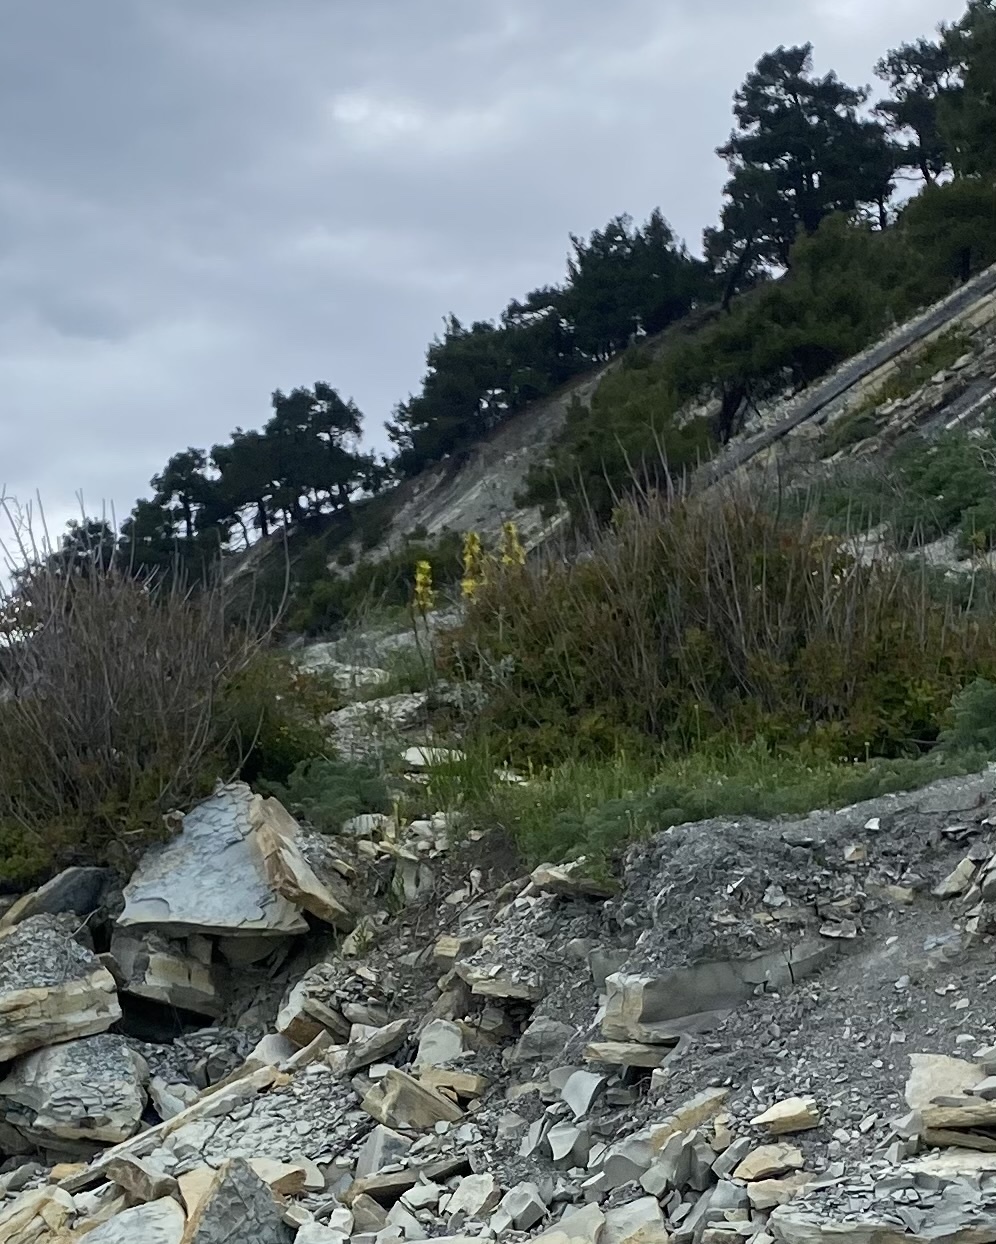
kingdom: Plantae
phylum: Tracheophyta
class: Liliopsida
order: Asparagales
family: Asphodelaceae
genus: Asphodeline
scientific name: Asphodeline lutea
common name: Yellow asphodel
